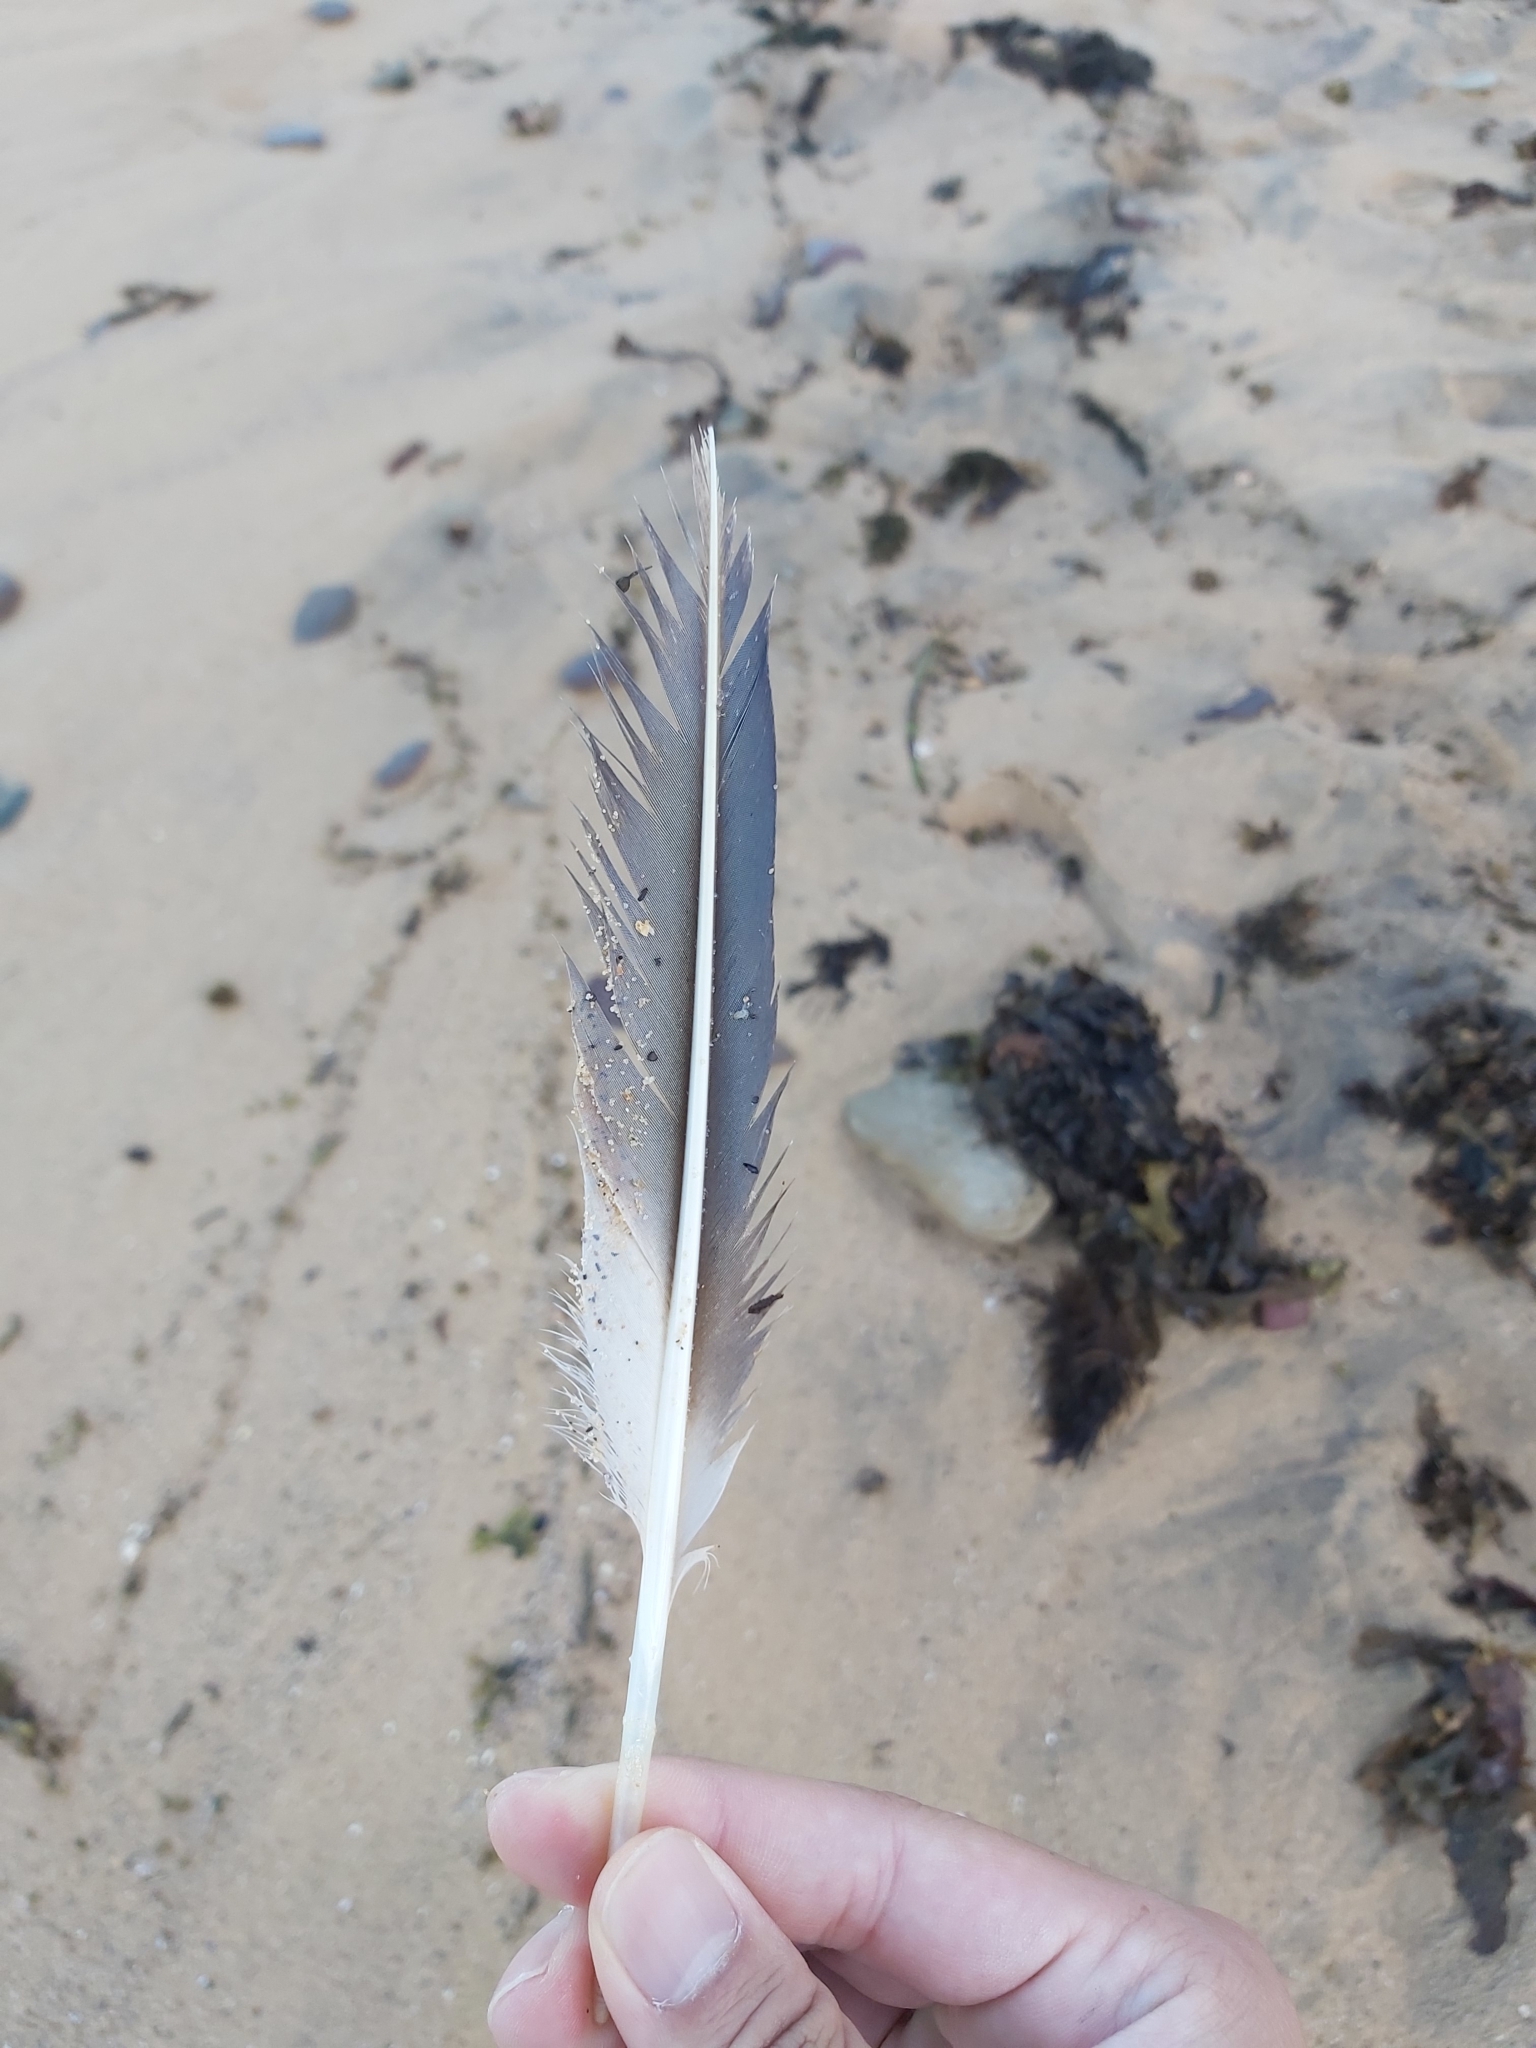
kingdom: Animalia
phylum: Chordata
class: Aves
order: Suliformes
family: Sulidae
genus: Morus
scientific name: Morus serrator
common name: Australasian gannet
